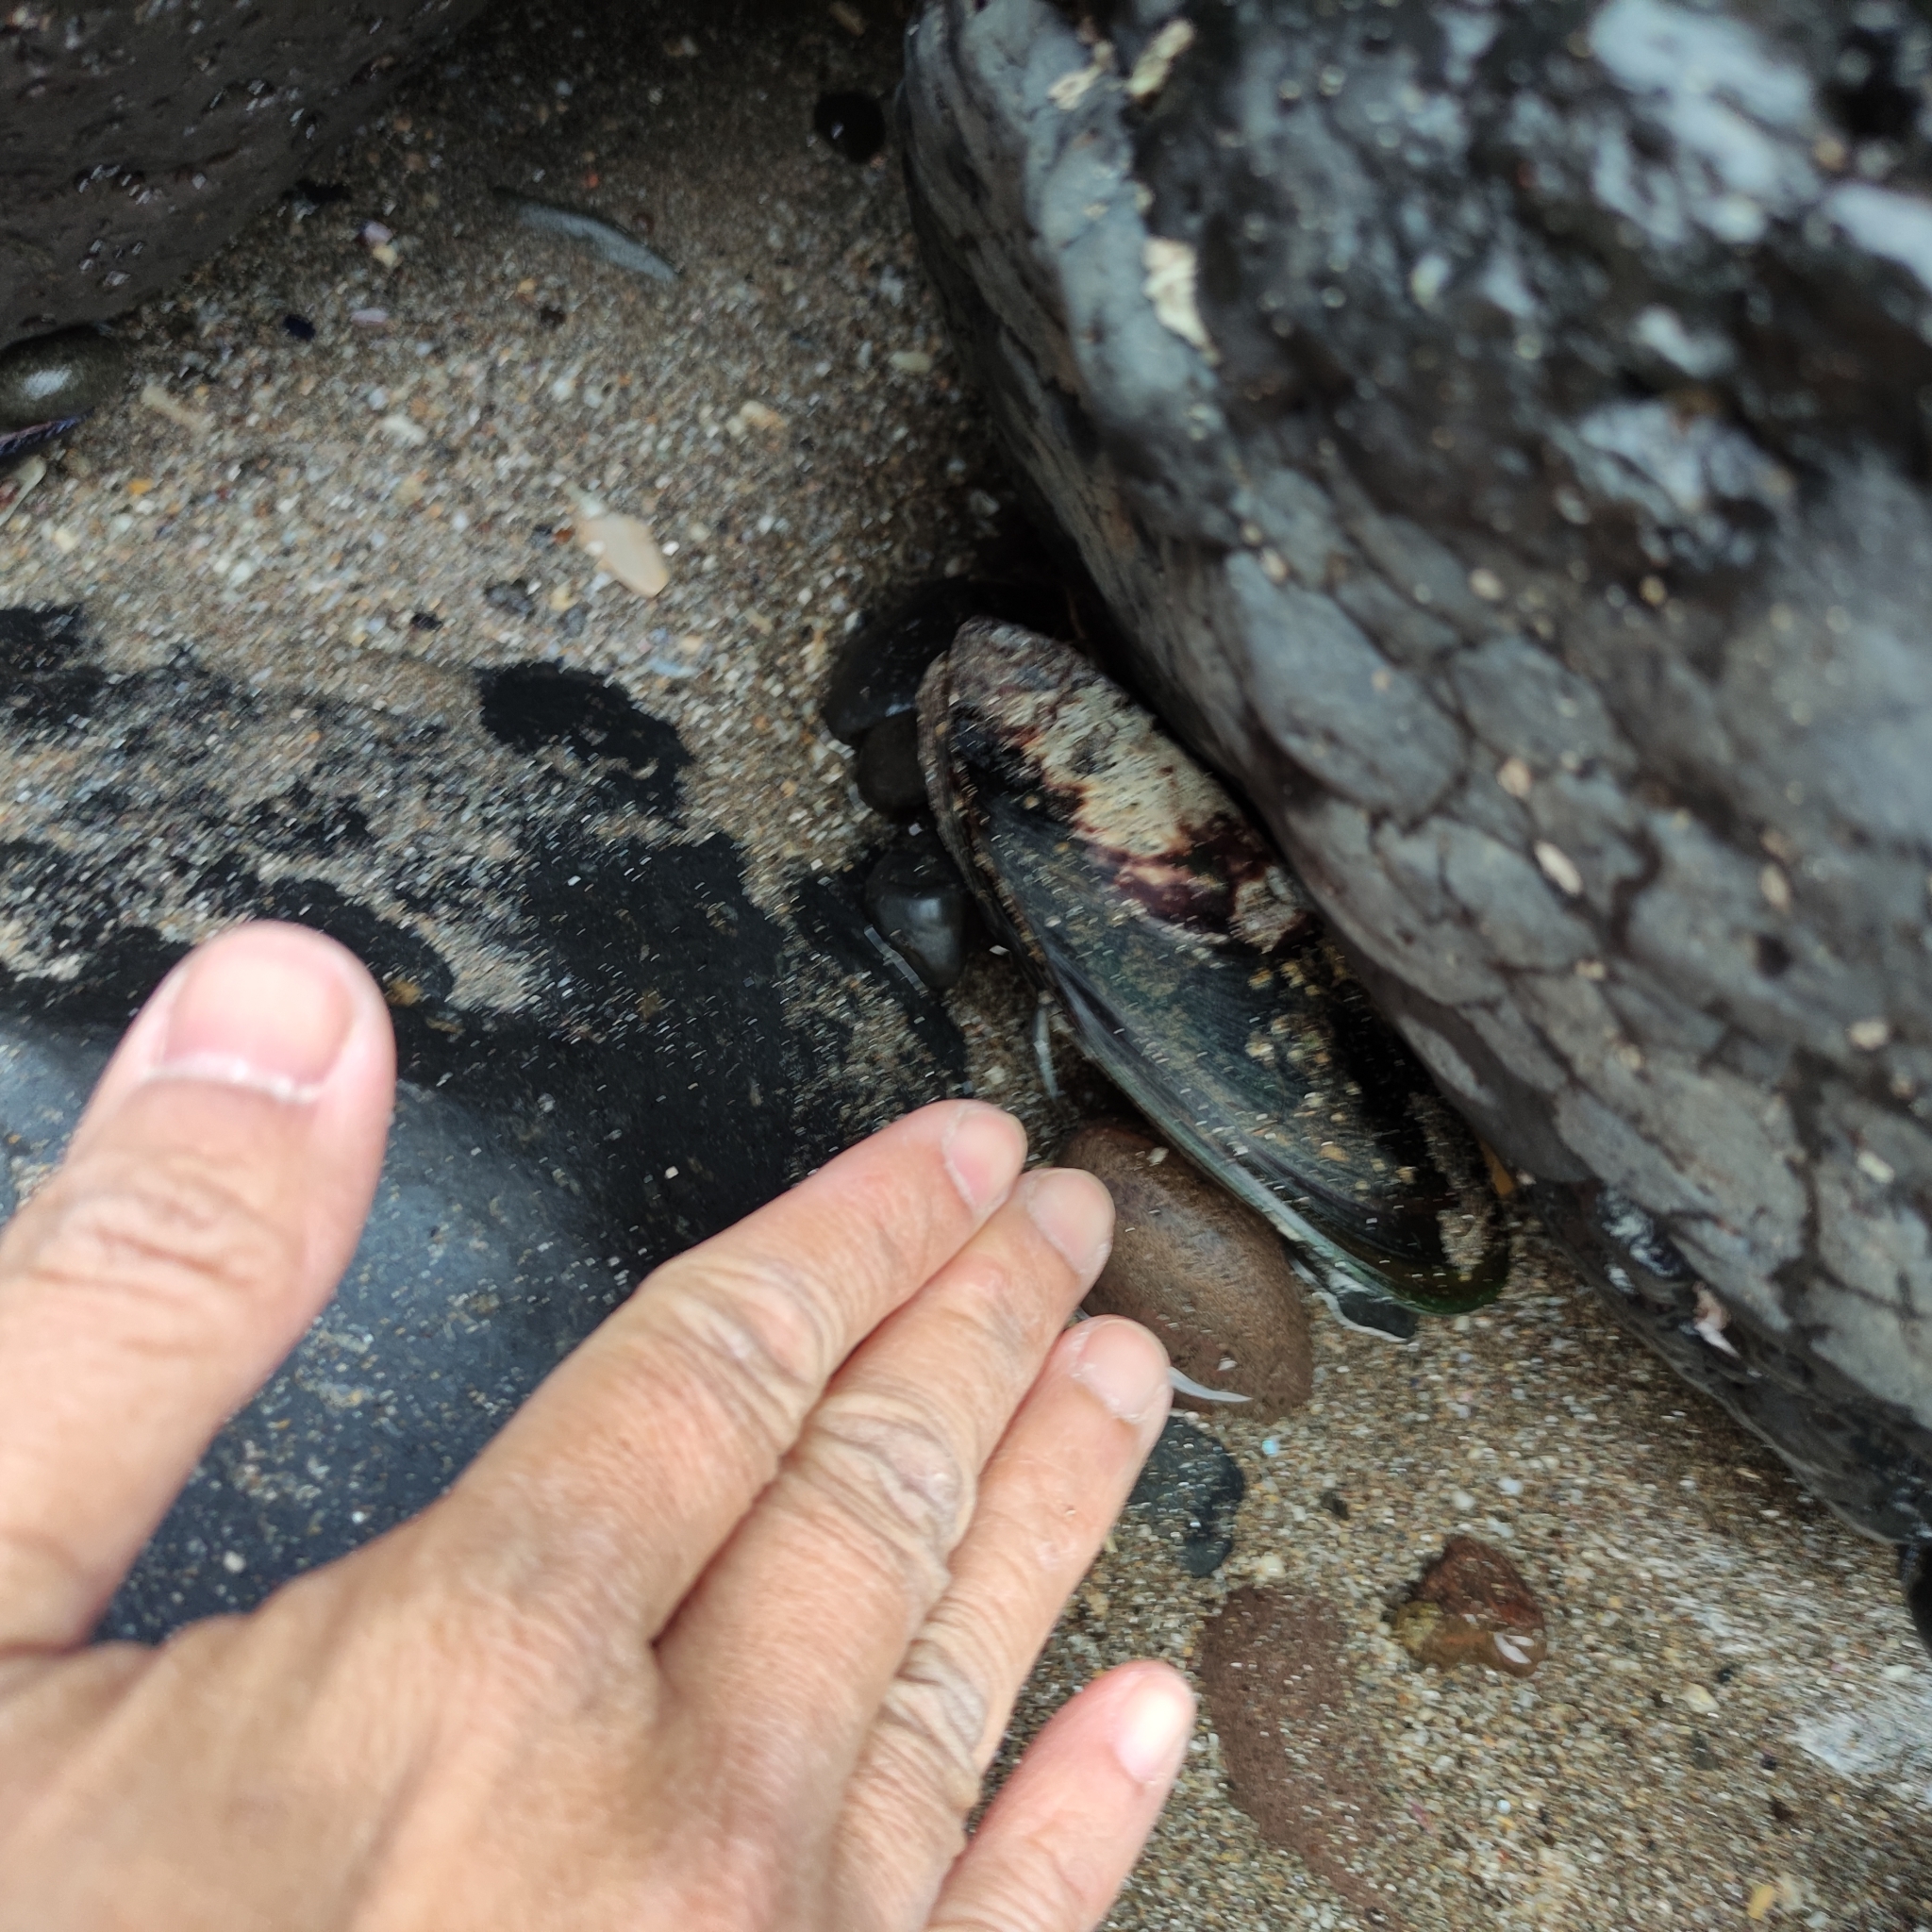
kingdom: Animalia
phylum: Mollusca
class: Bivalvia
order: Mytilida
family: Mytilidae
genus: Perna
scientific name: Perna canaliculus
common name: New zealand greenshelltm
